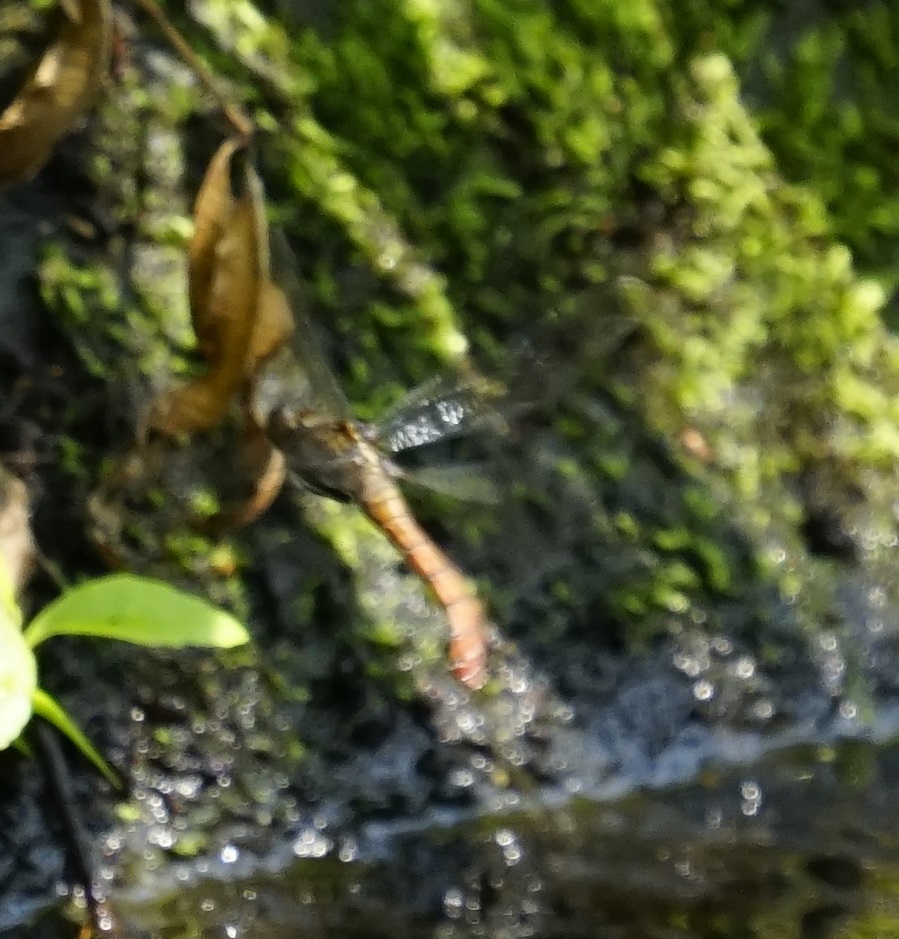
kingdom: Animalia
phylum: Arthropoda
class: Insecta
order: Odonata
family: Libellulidae
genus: Orthetrum
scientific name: Orthetrum villosovittatum
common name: Firery skimmer
